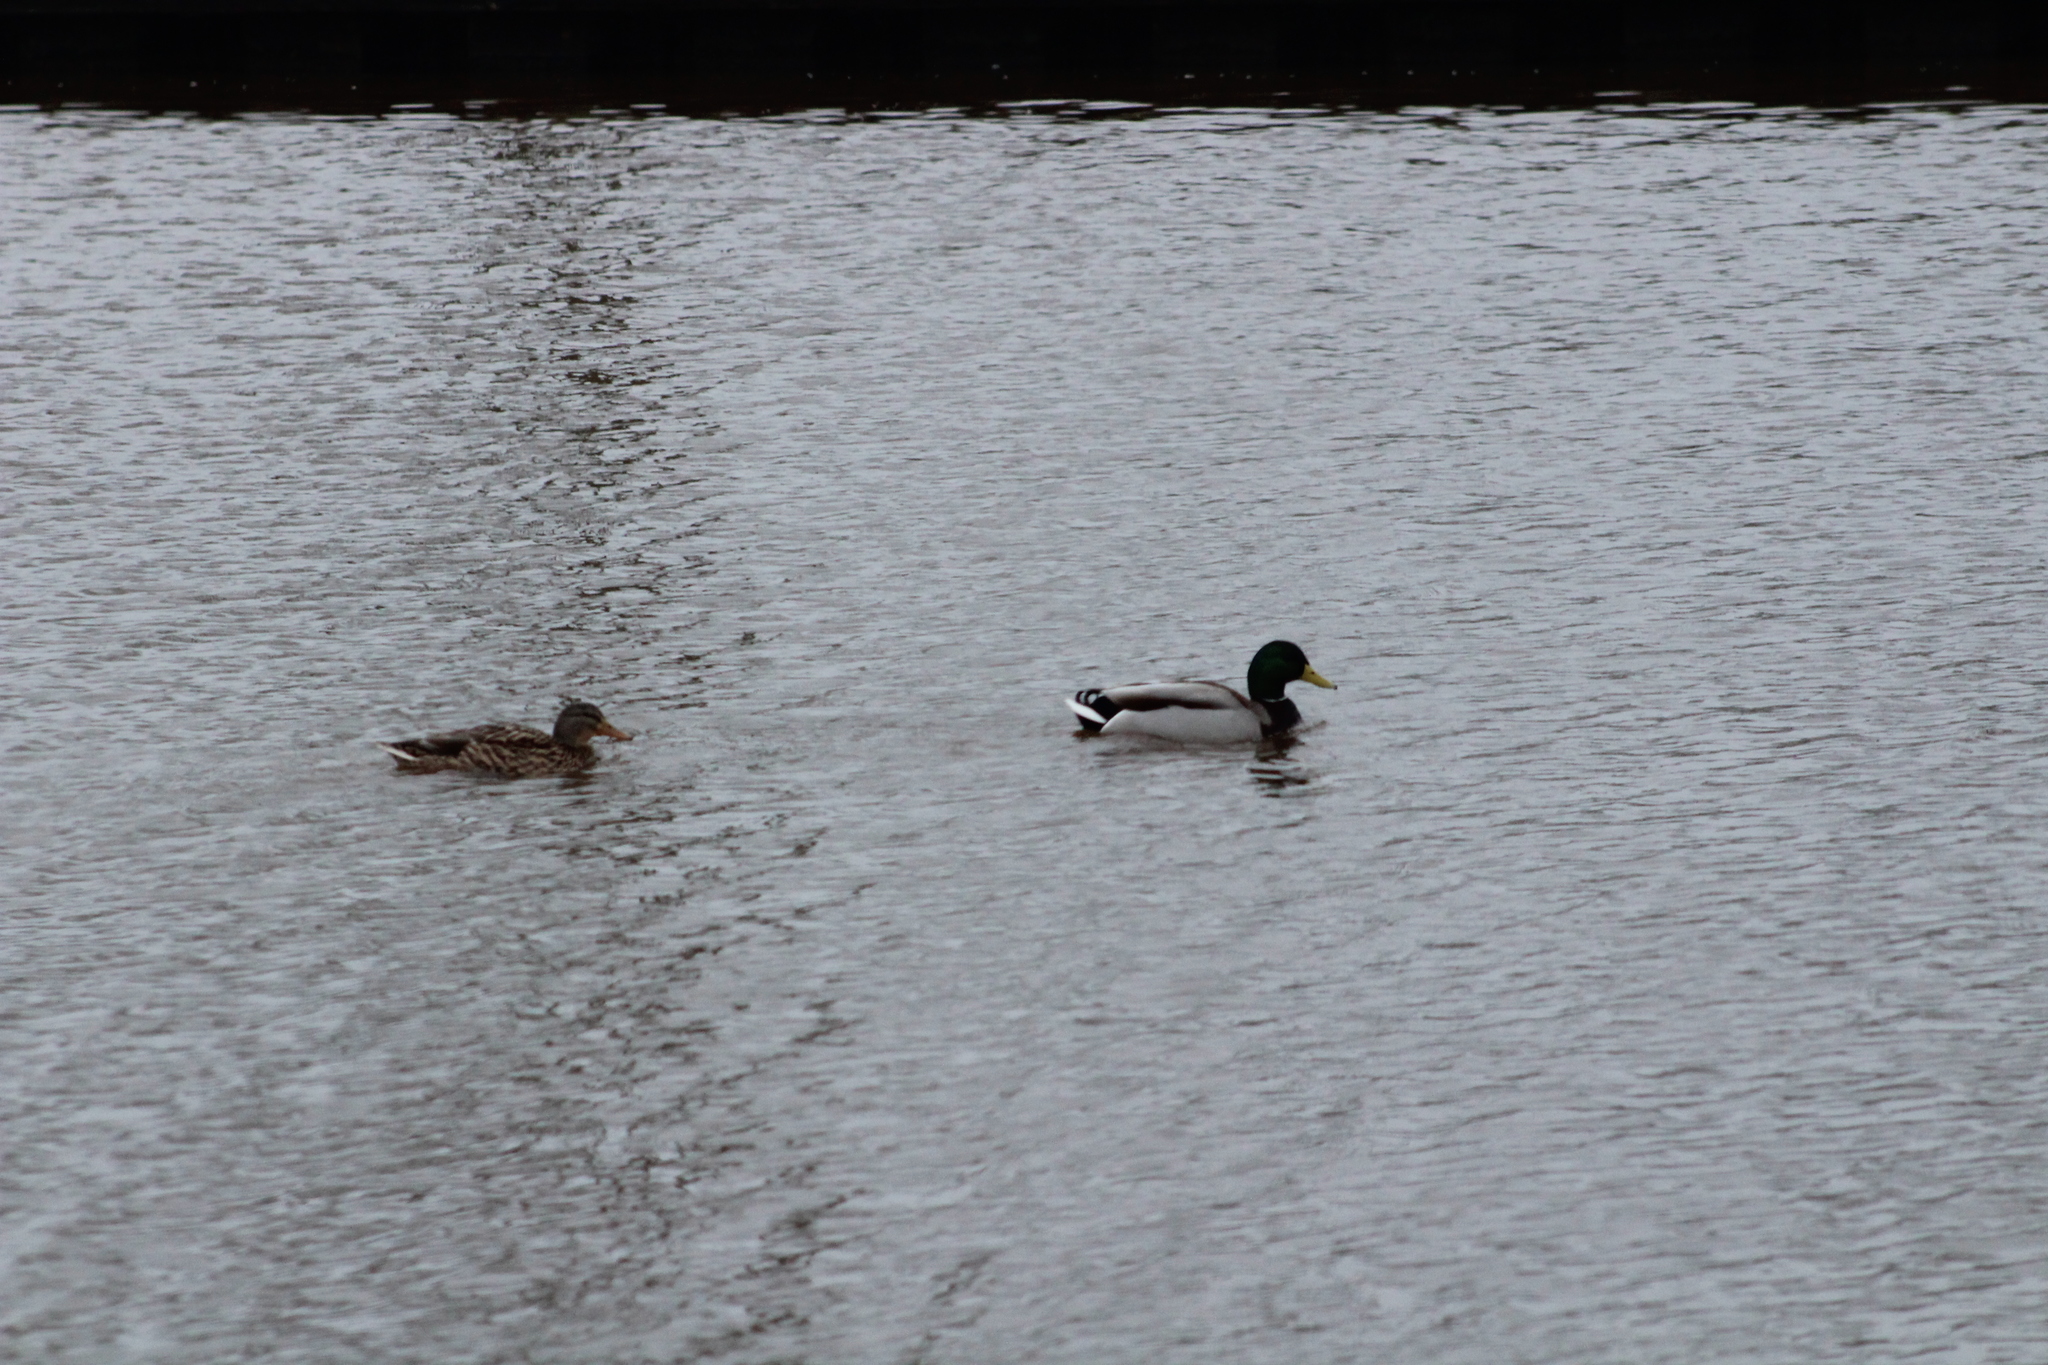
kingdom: Animalia
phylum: Chordata
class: Aves
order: Anseriformes
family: Anatidae
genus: Anas
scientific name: Anas platyrhynchos
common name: Mallard
